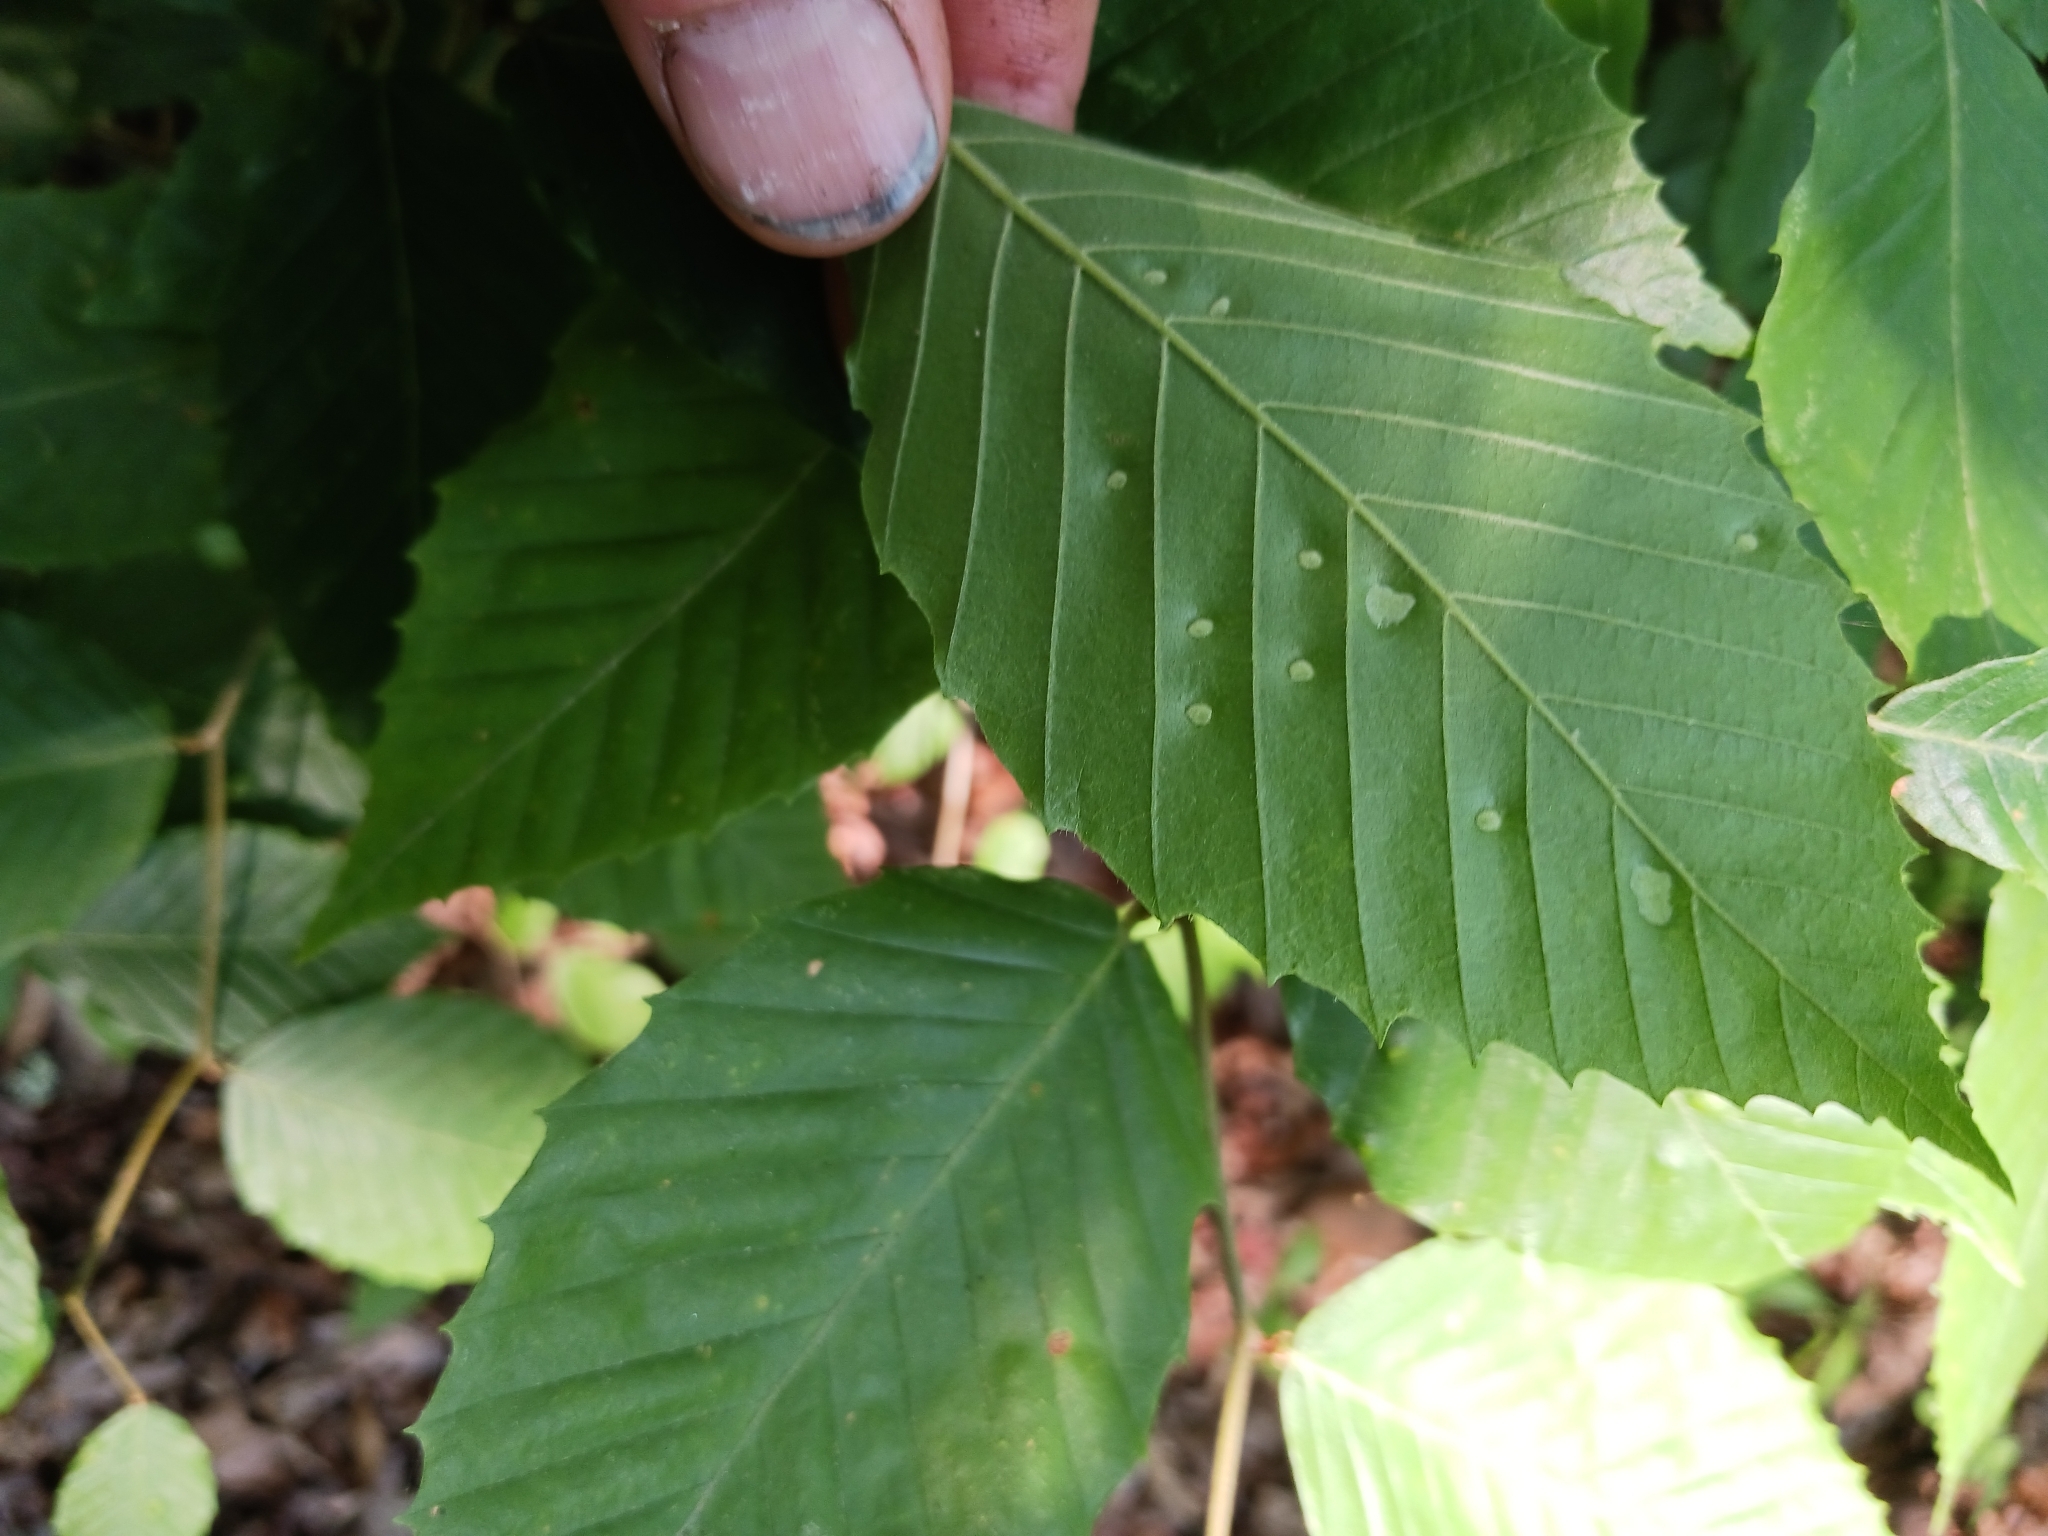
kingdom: Plantae
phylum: Tracheophyta
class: Magnoliopsida
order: Fagales
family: Fagaceae
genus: Fagus
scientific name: Fagus grandifolia
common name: American beech
